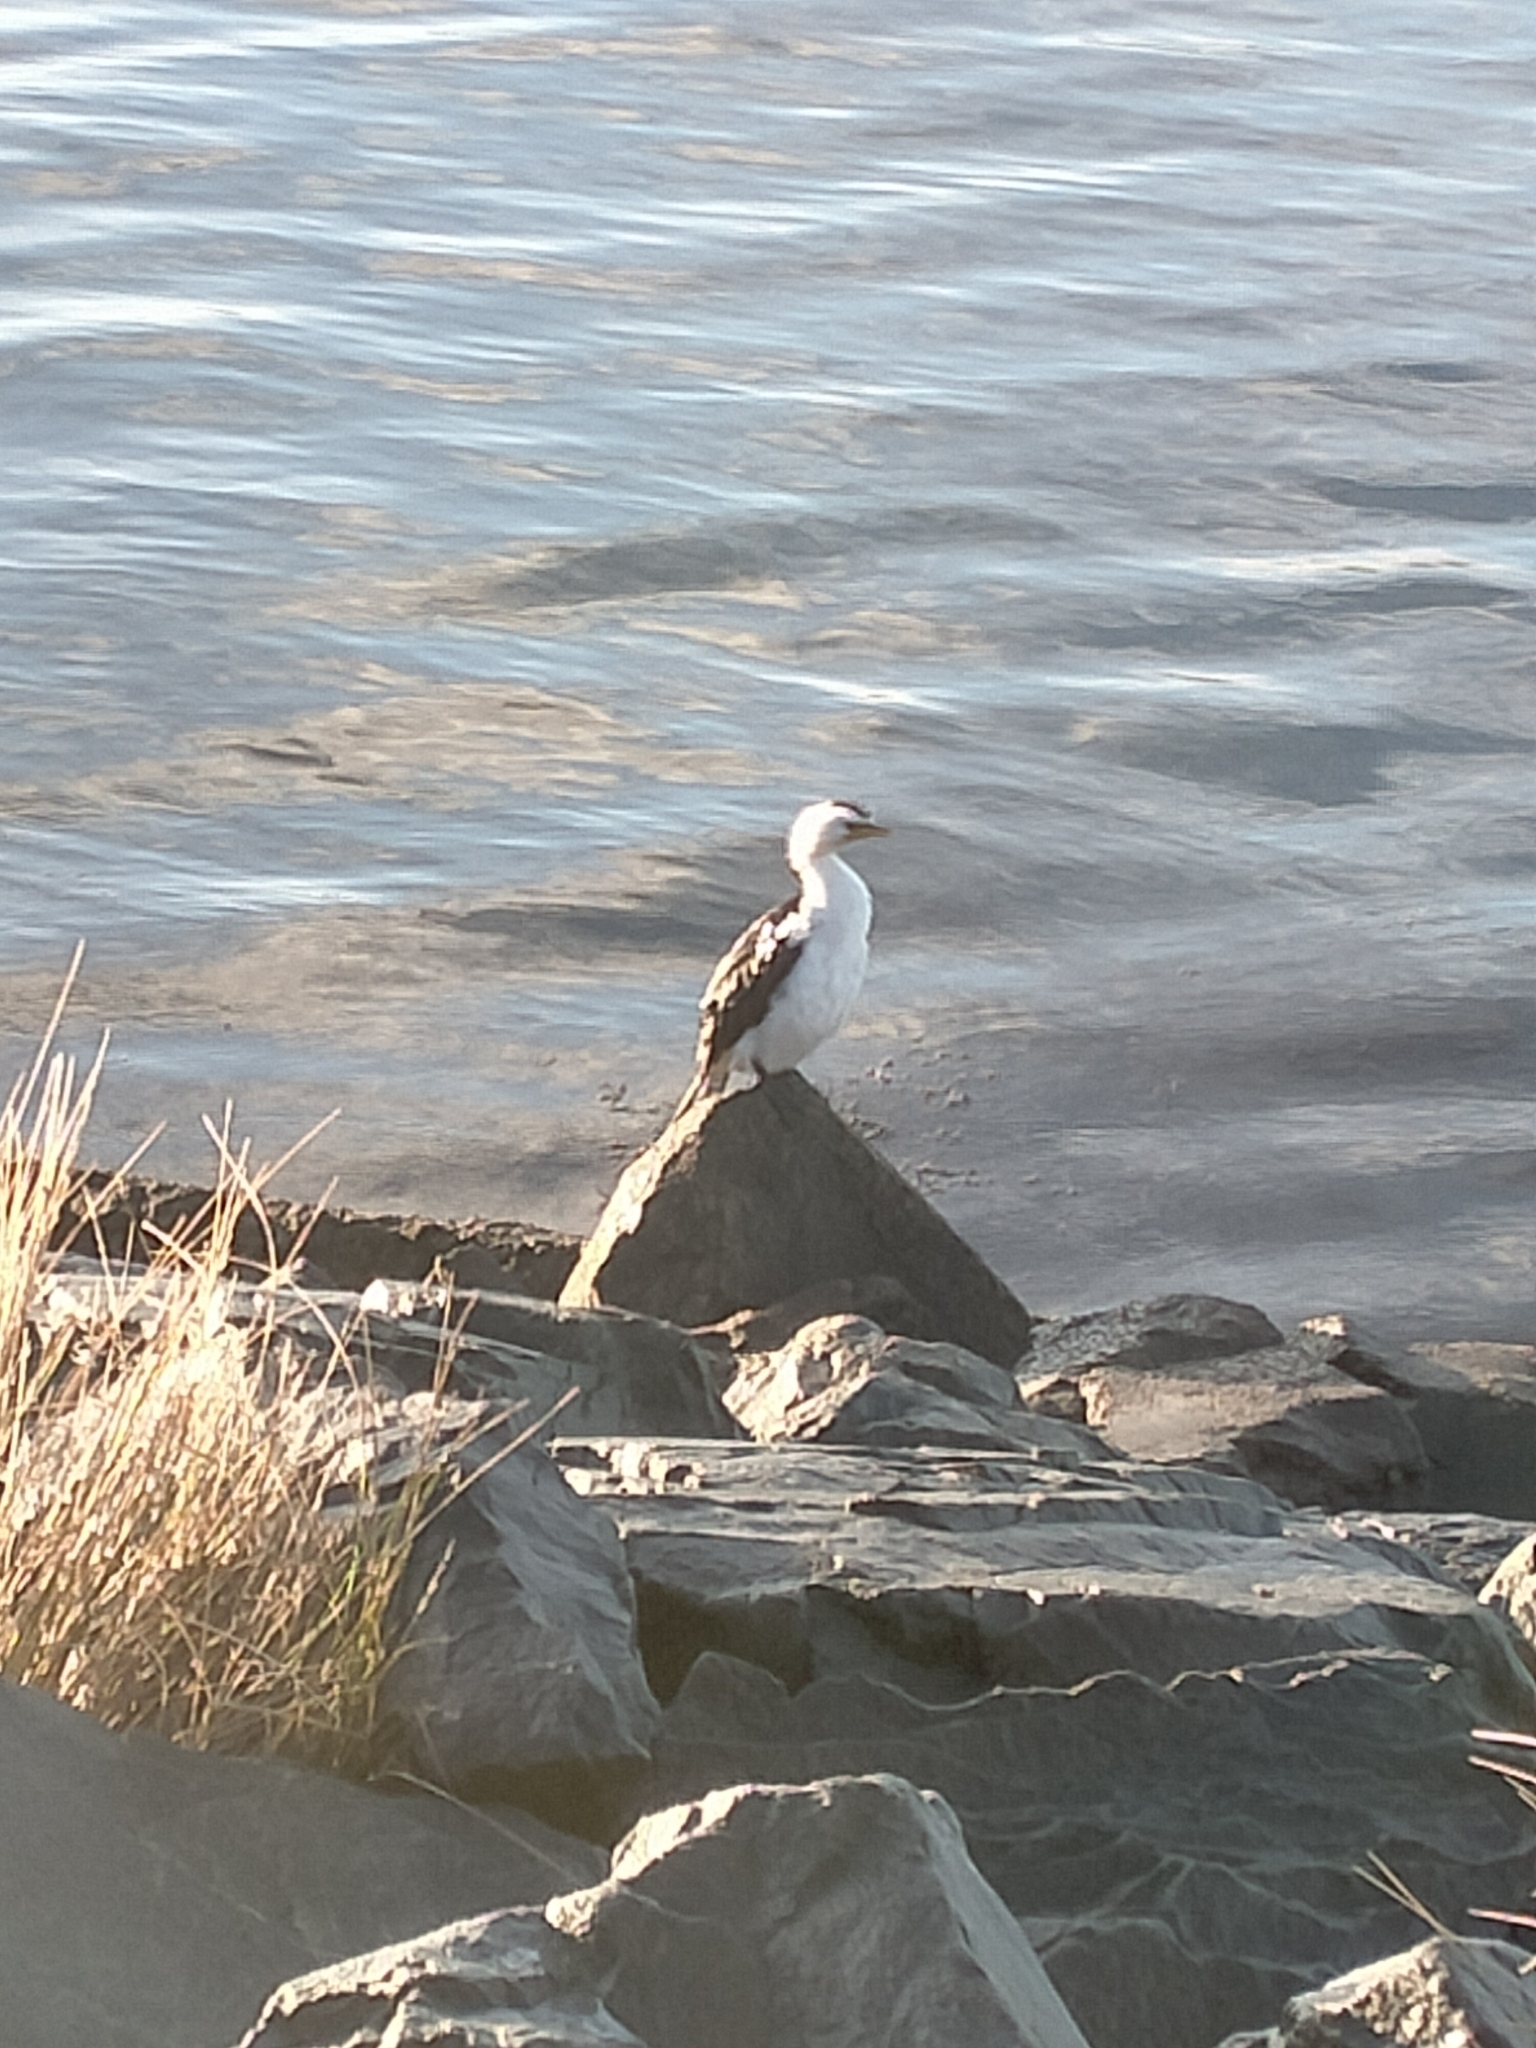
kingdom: Animalia
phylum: Chordata
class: Aves
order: Suliformes
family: Phalacrocoracidae
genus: Microcarbo
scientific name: Microcarbo melanoleucos
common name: Little pied cormorant
